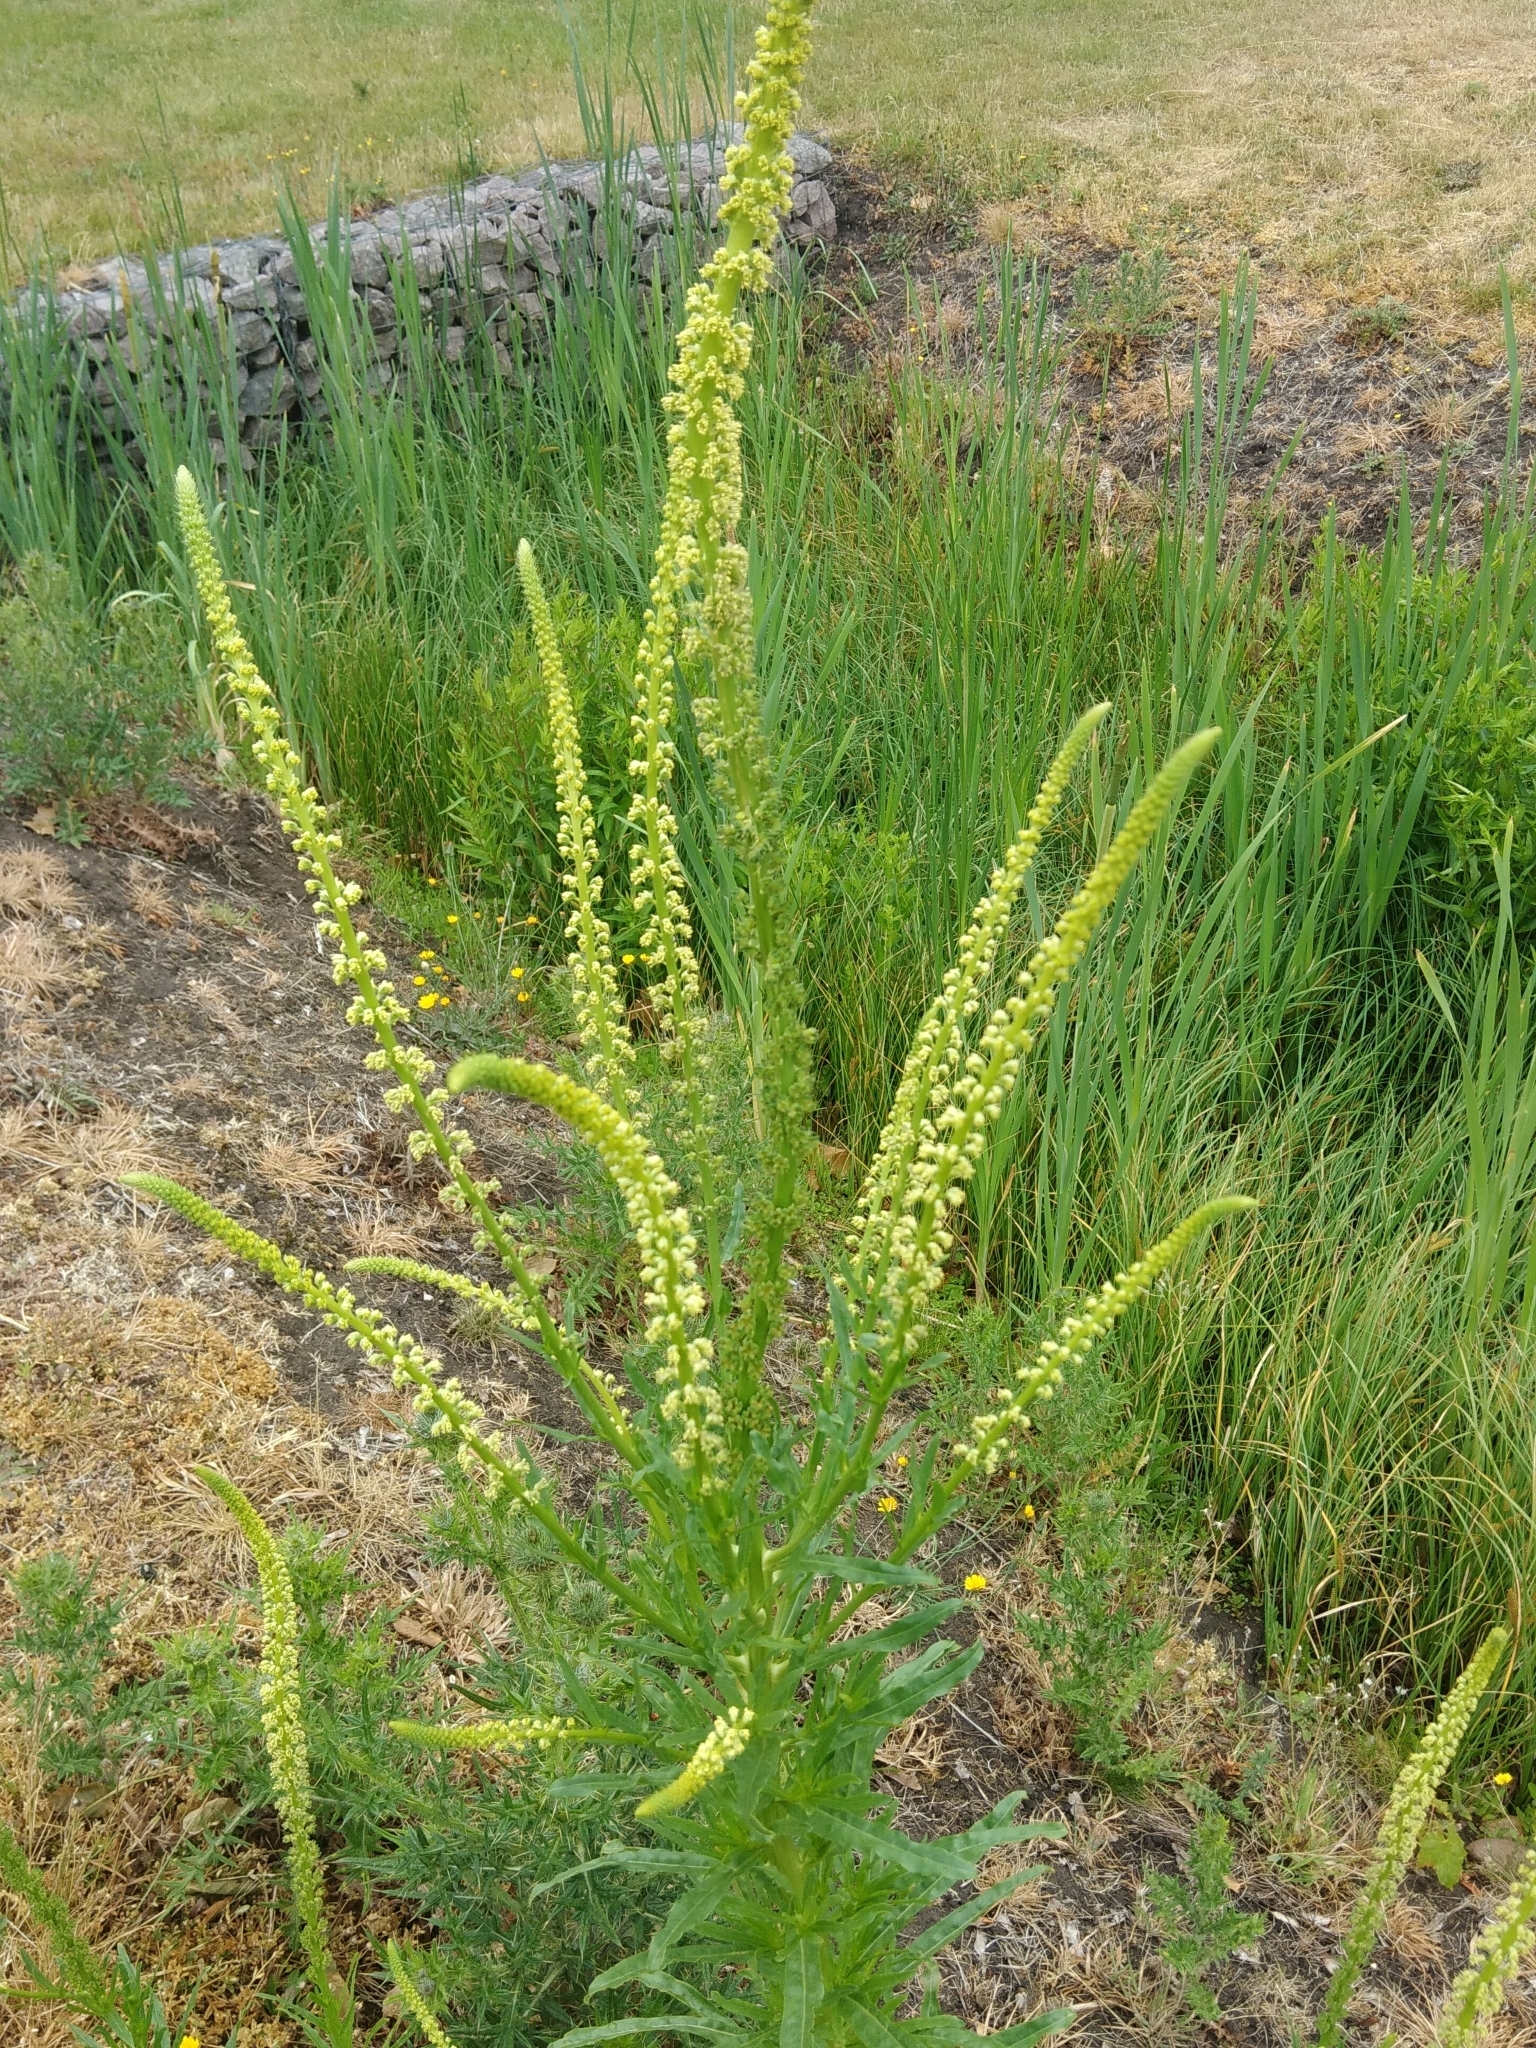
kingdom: Plantae
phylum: Tracheophyta
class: Magnoliopsida
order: Brassicales
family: Resedaceae
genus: Reseda
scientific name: Reseda luteola
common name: Weld
